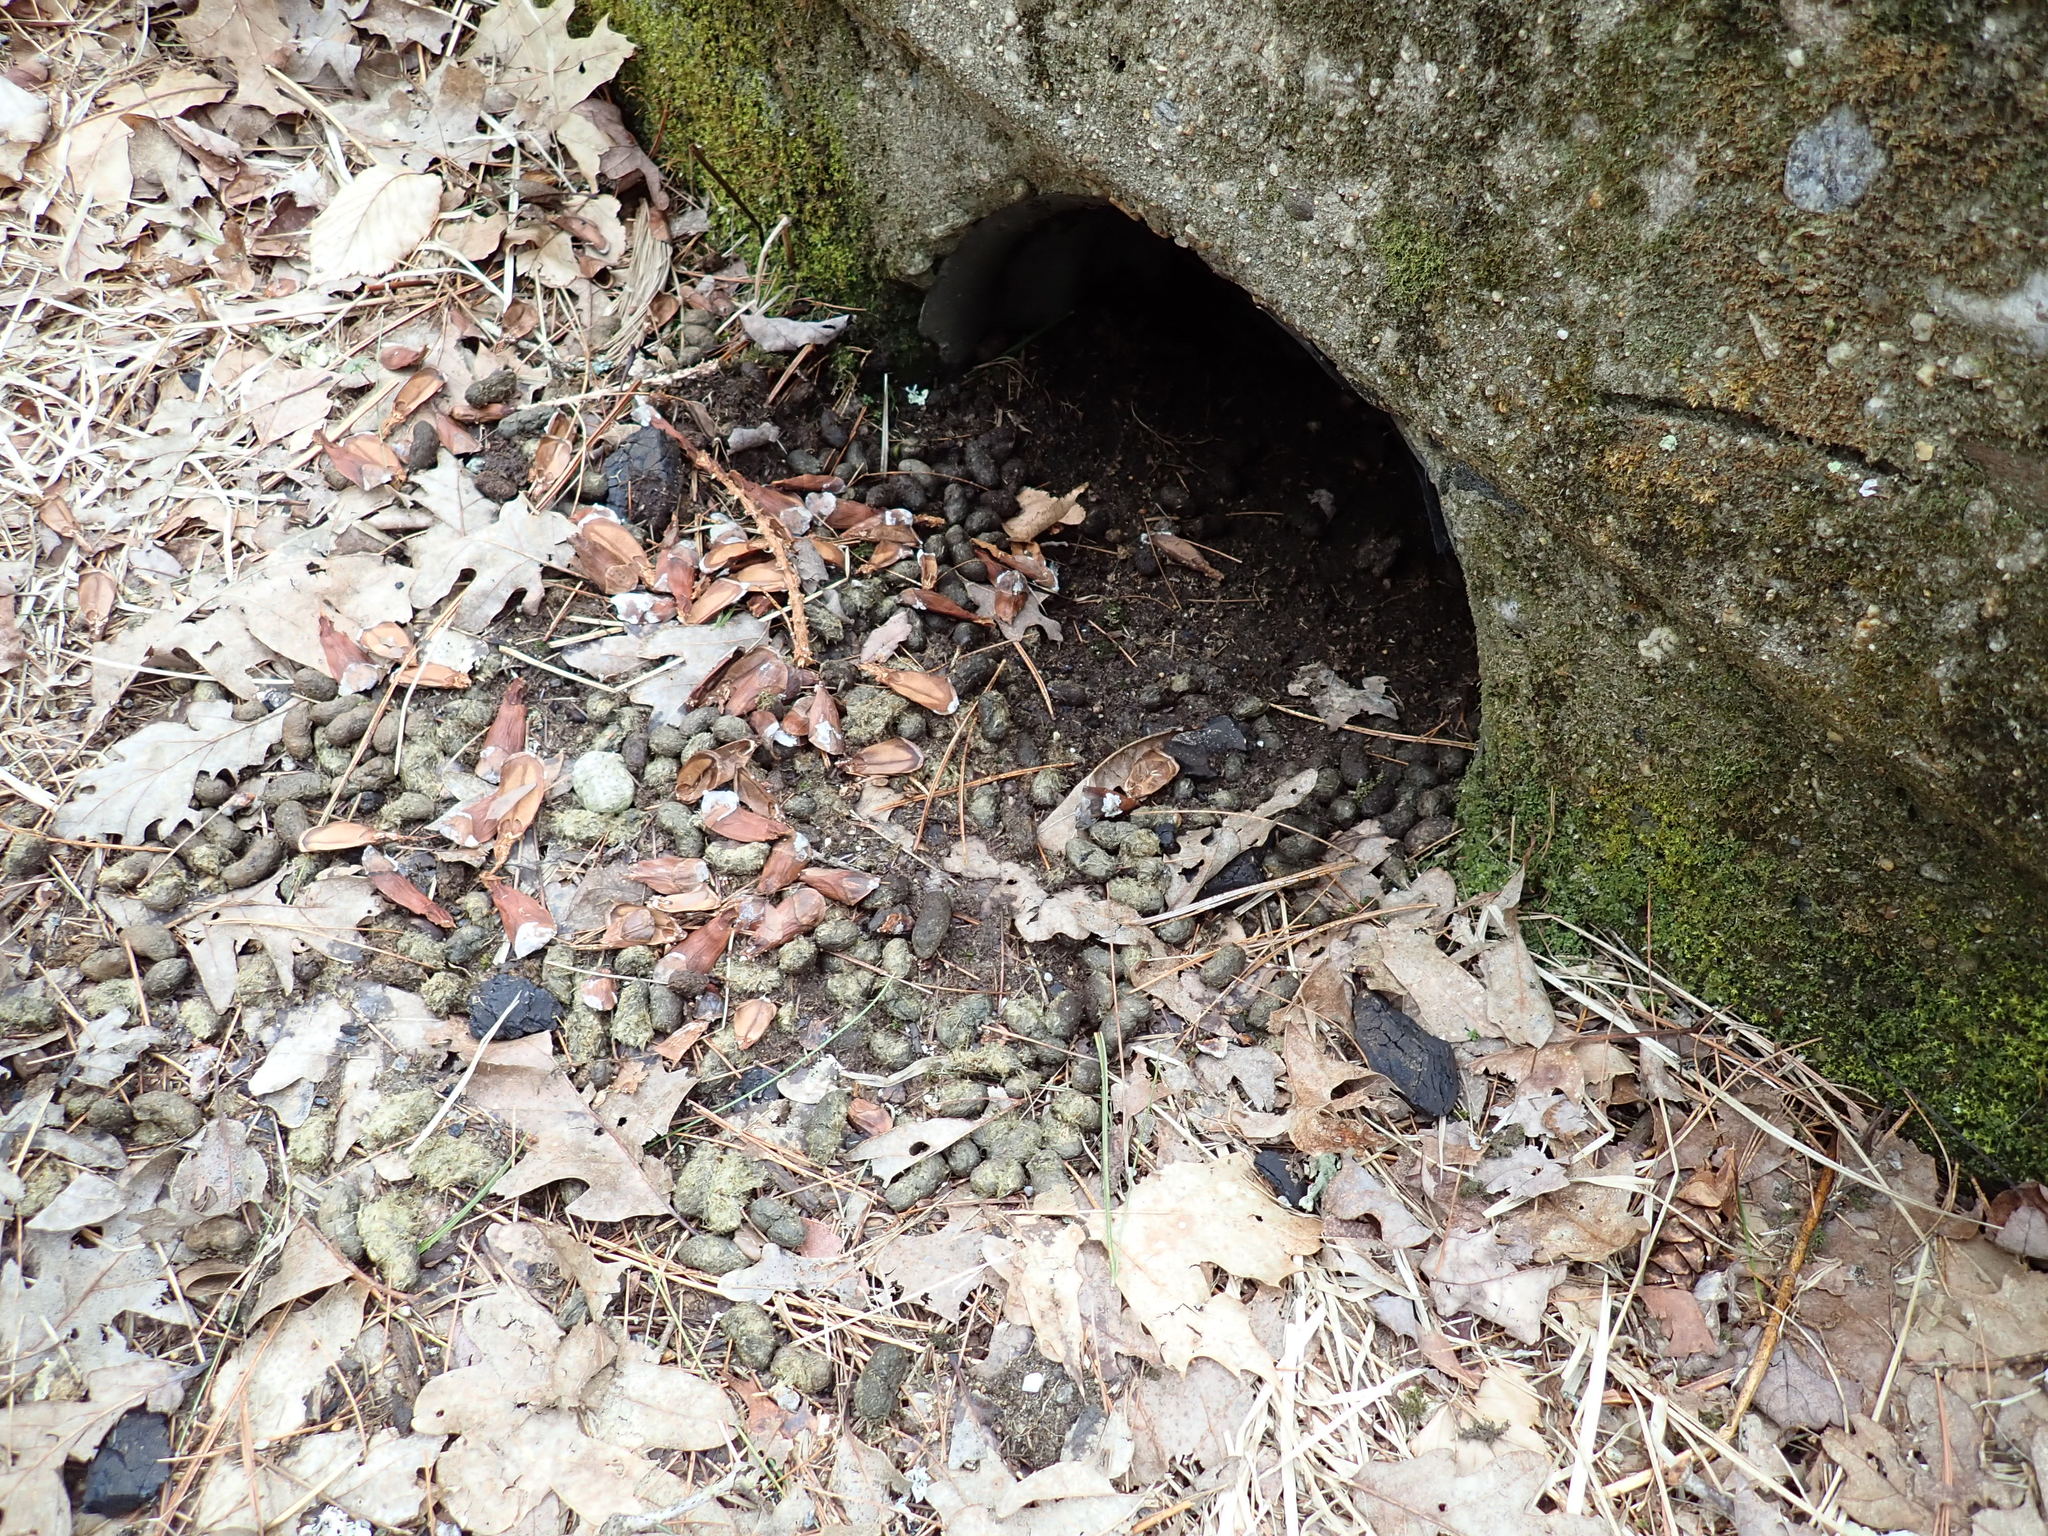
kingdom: Animalia
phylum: Chordata
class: Mammalia
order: Rodentia
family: Erethizontidae
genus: Erethizon
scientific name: Erethizon dorsatus
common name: North american porcupine
